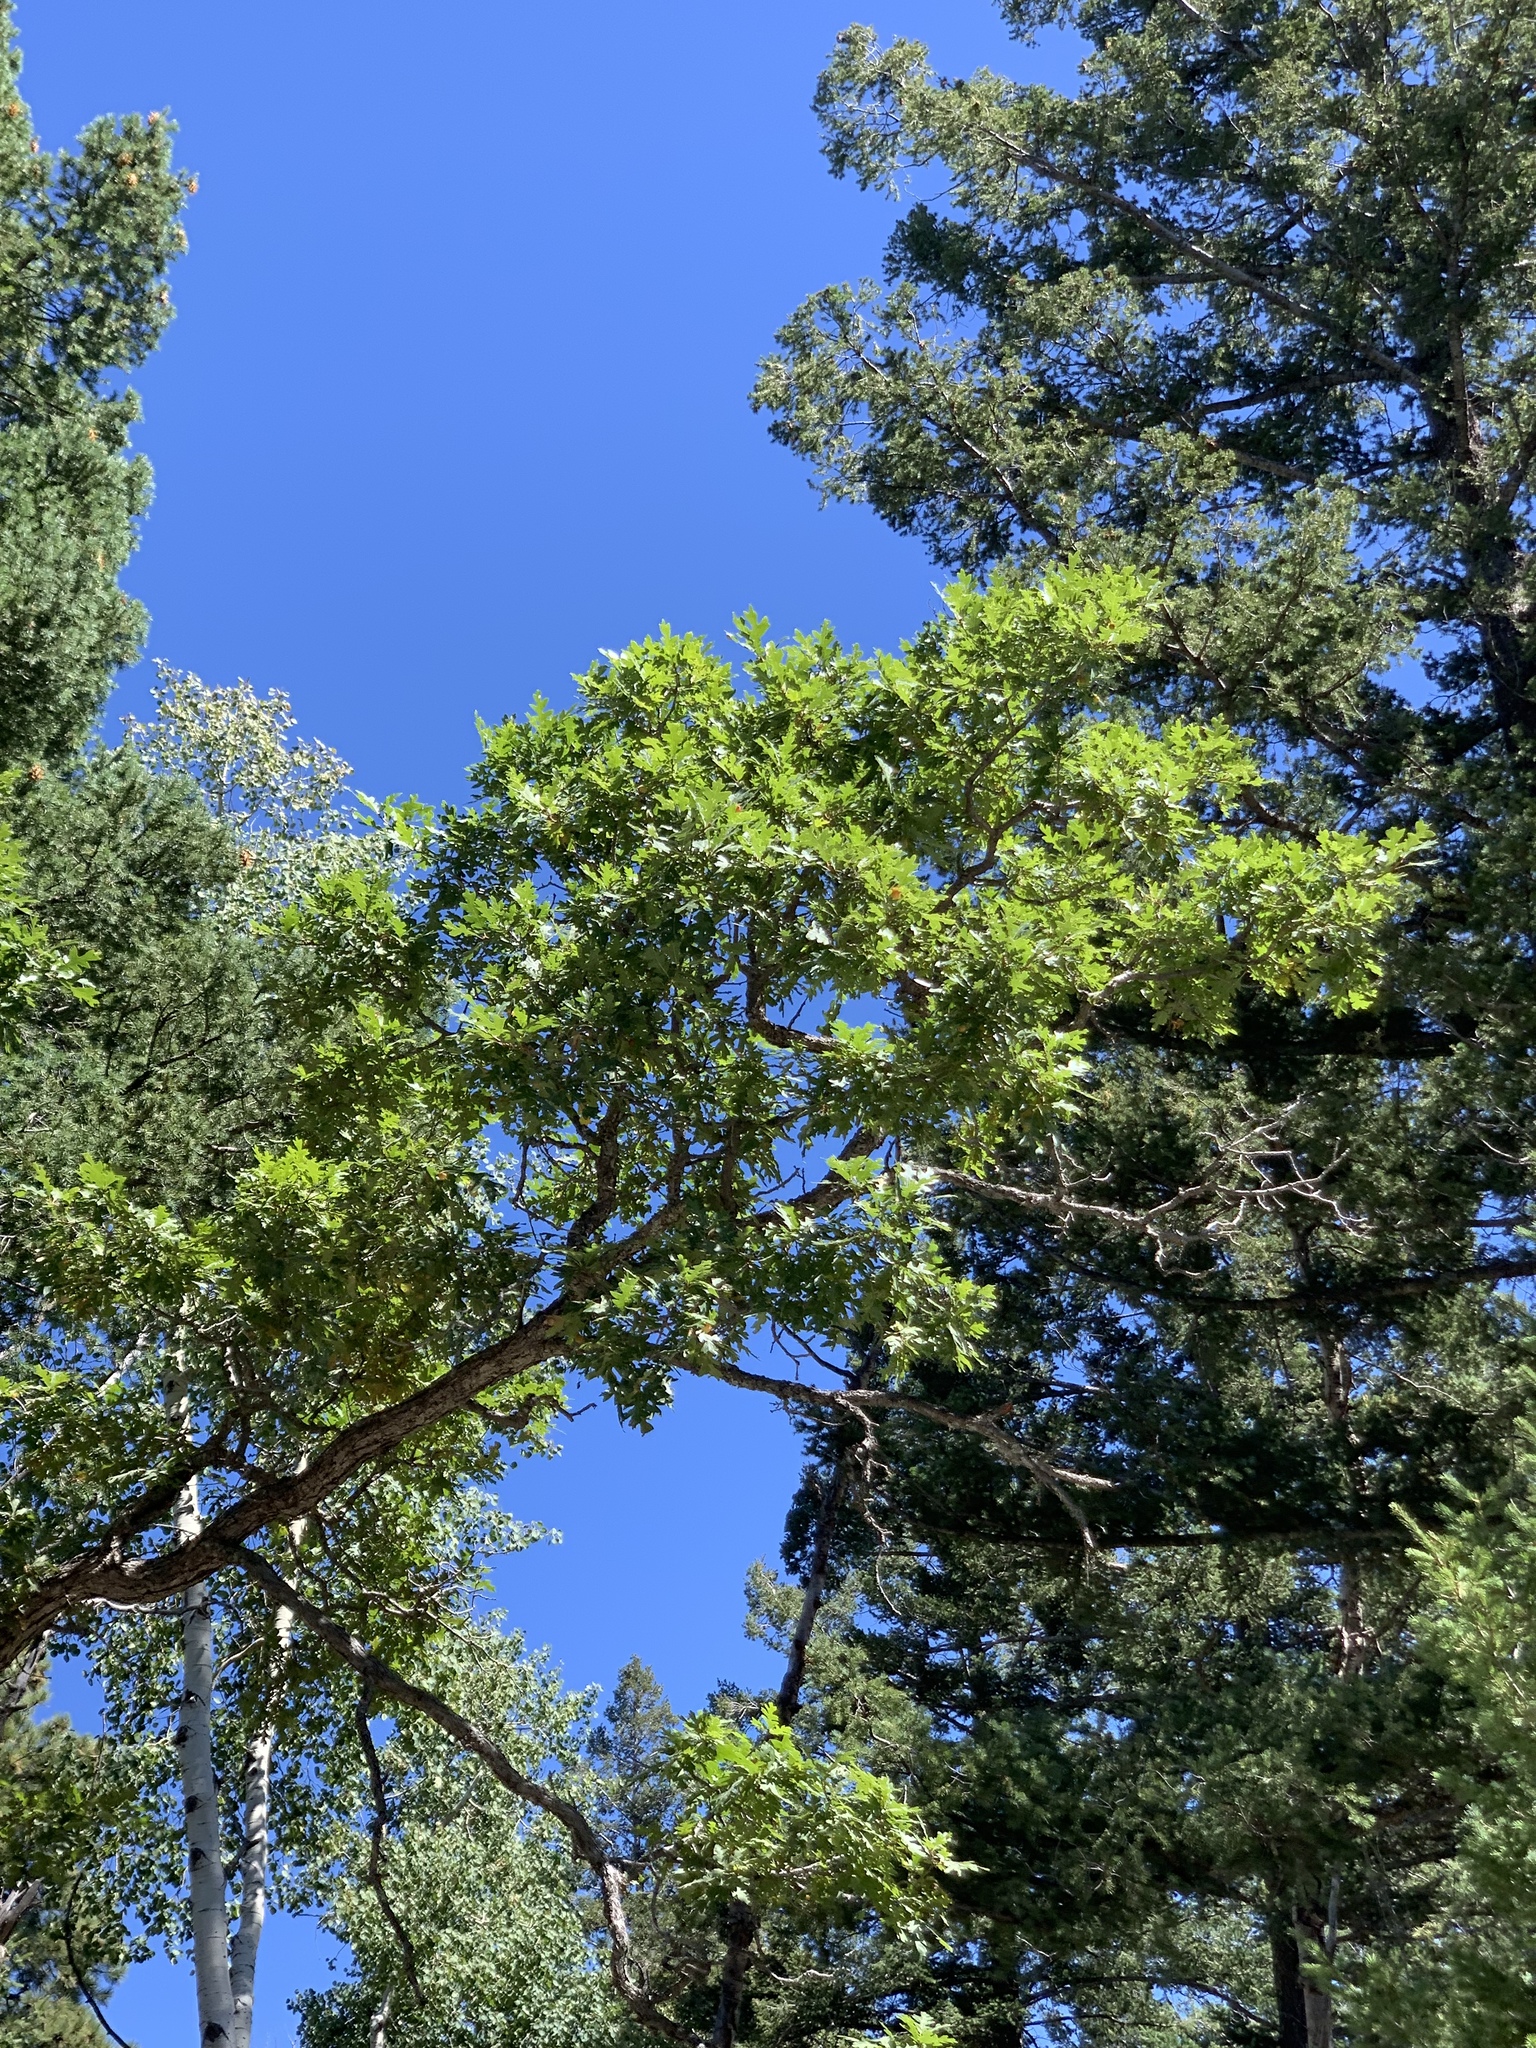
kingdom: Plantae
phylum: Tracheophyta
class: Magnoliopsida
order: Fagales
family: Fagaceae
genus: Quercus
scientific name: Quercus gambelii
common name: Gambel oak
